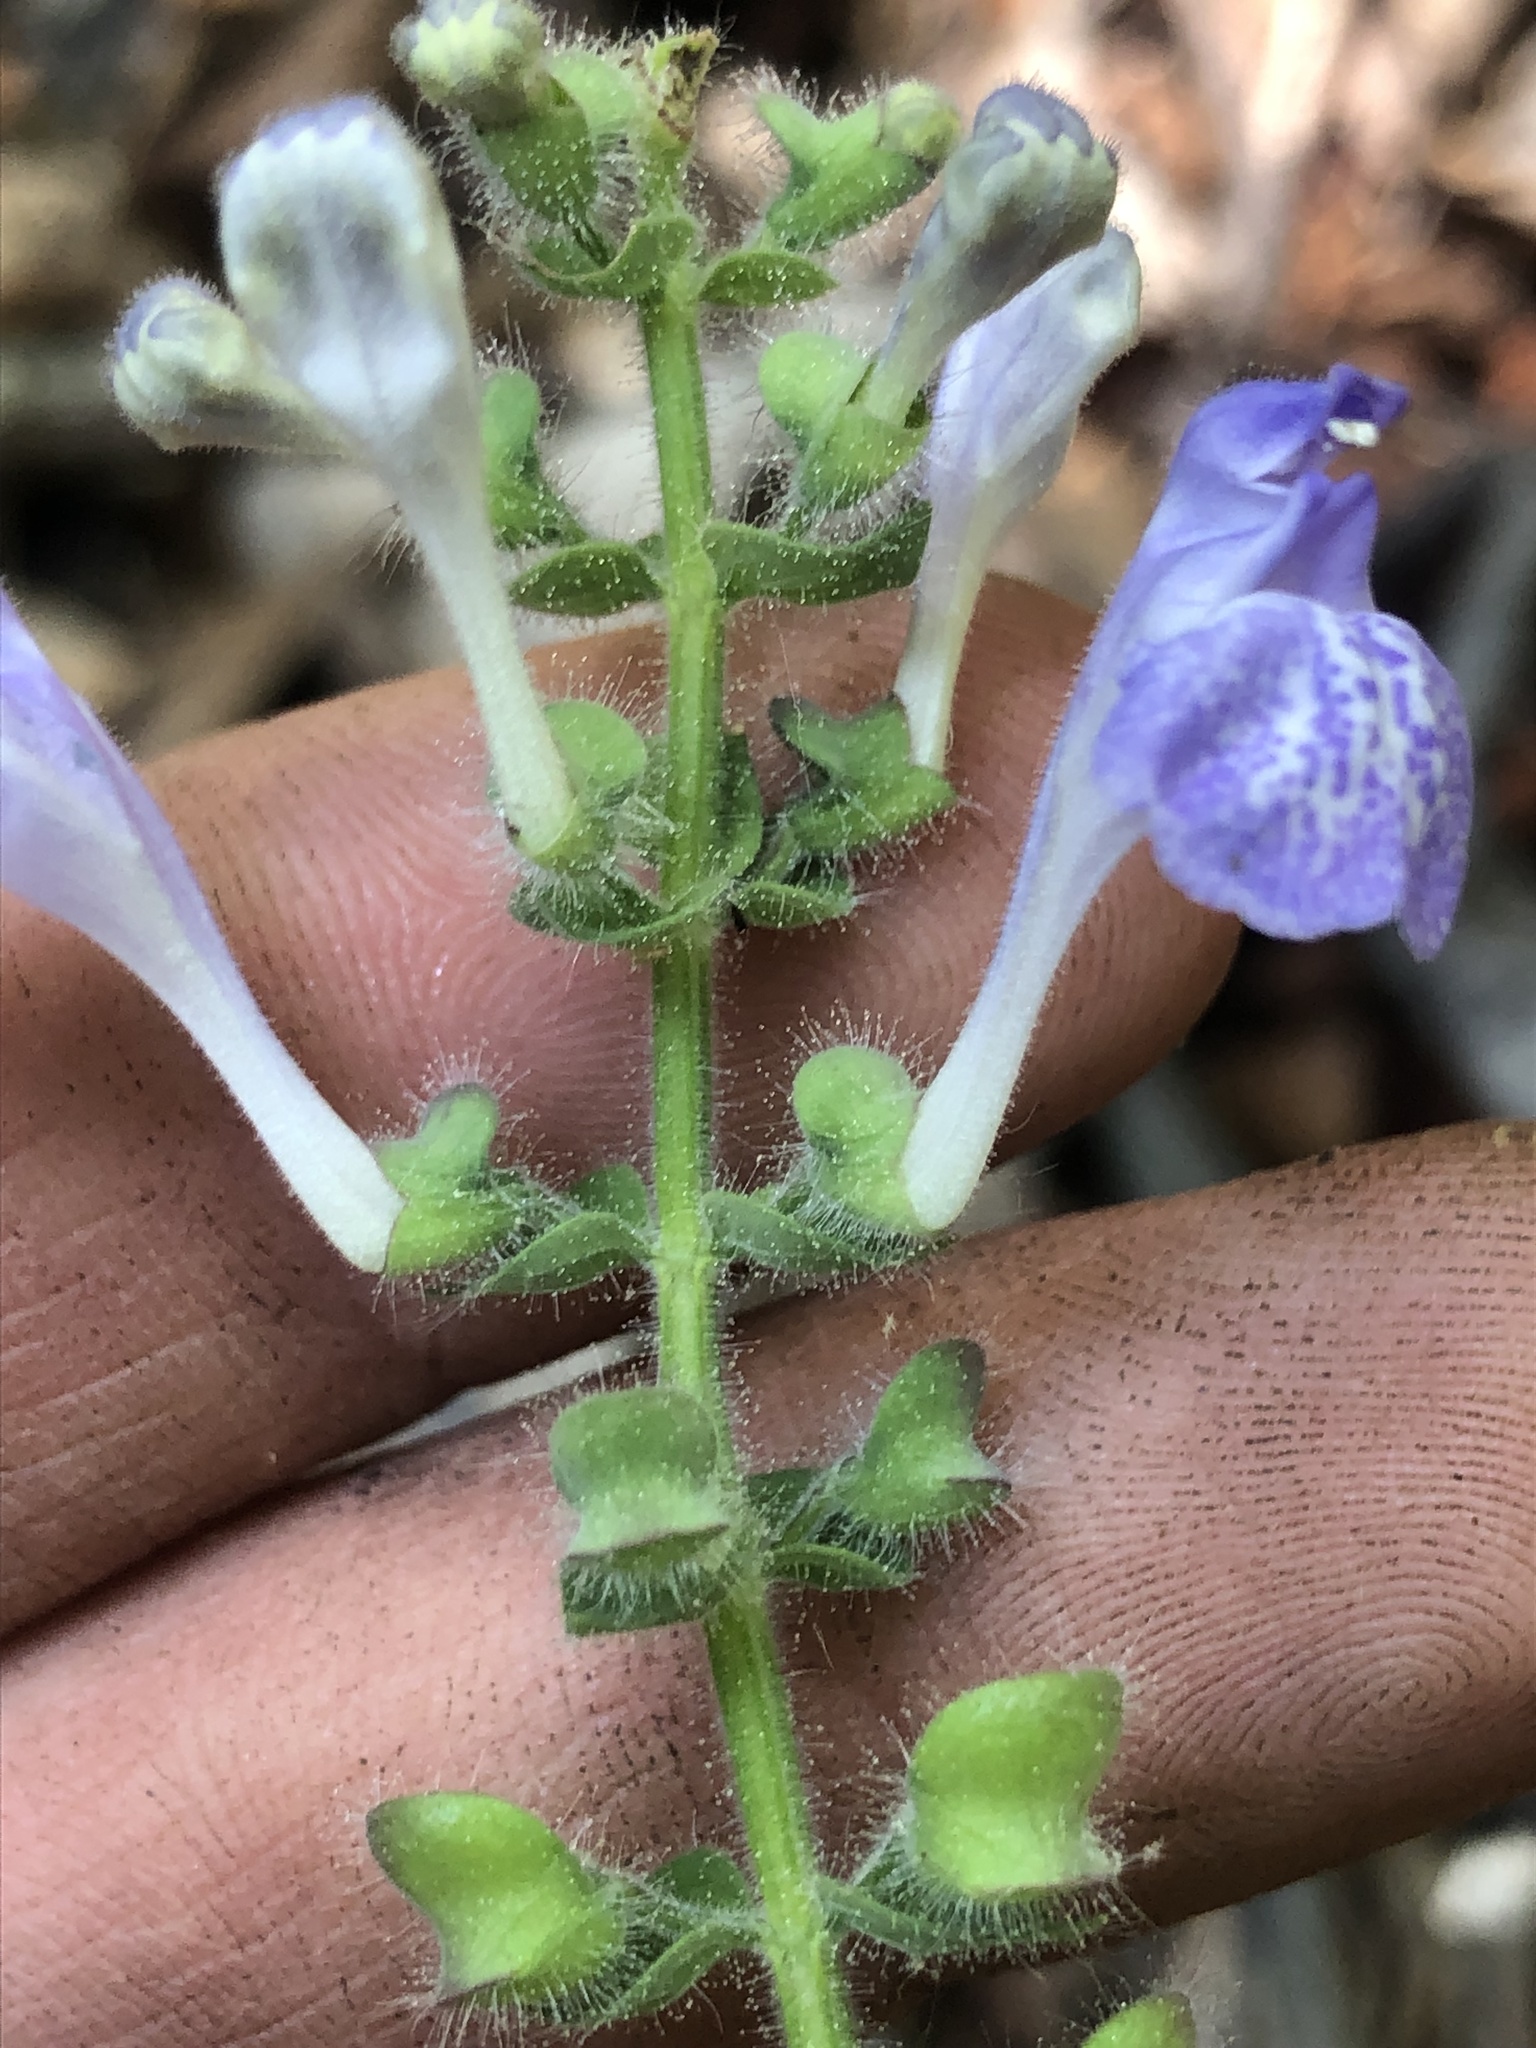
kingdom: Plantae
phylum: Tracheophyta
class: Magnoliopsida
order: Lamiales
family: Lamiaceae
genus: Scutellaria
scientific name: Scutellaria elliptica
